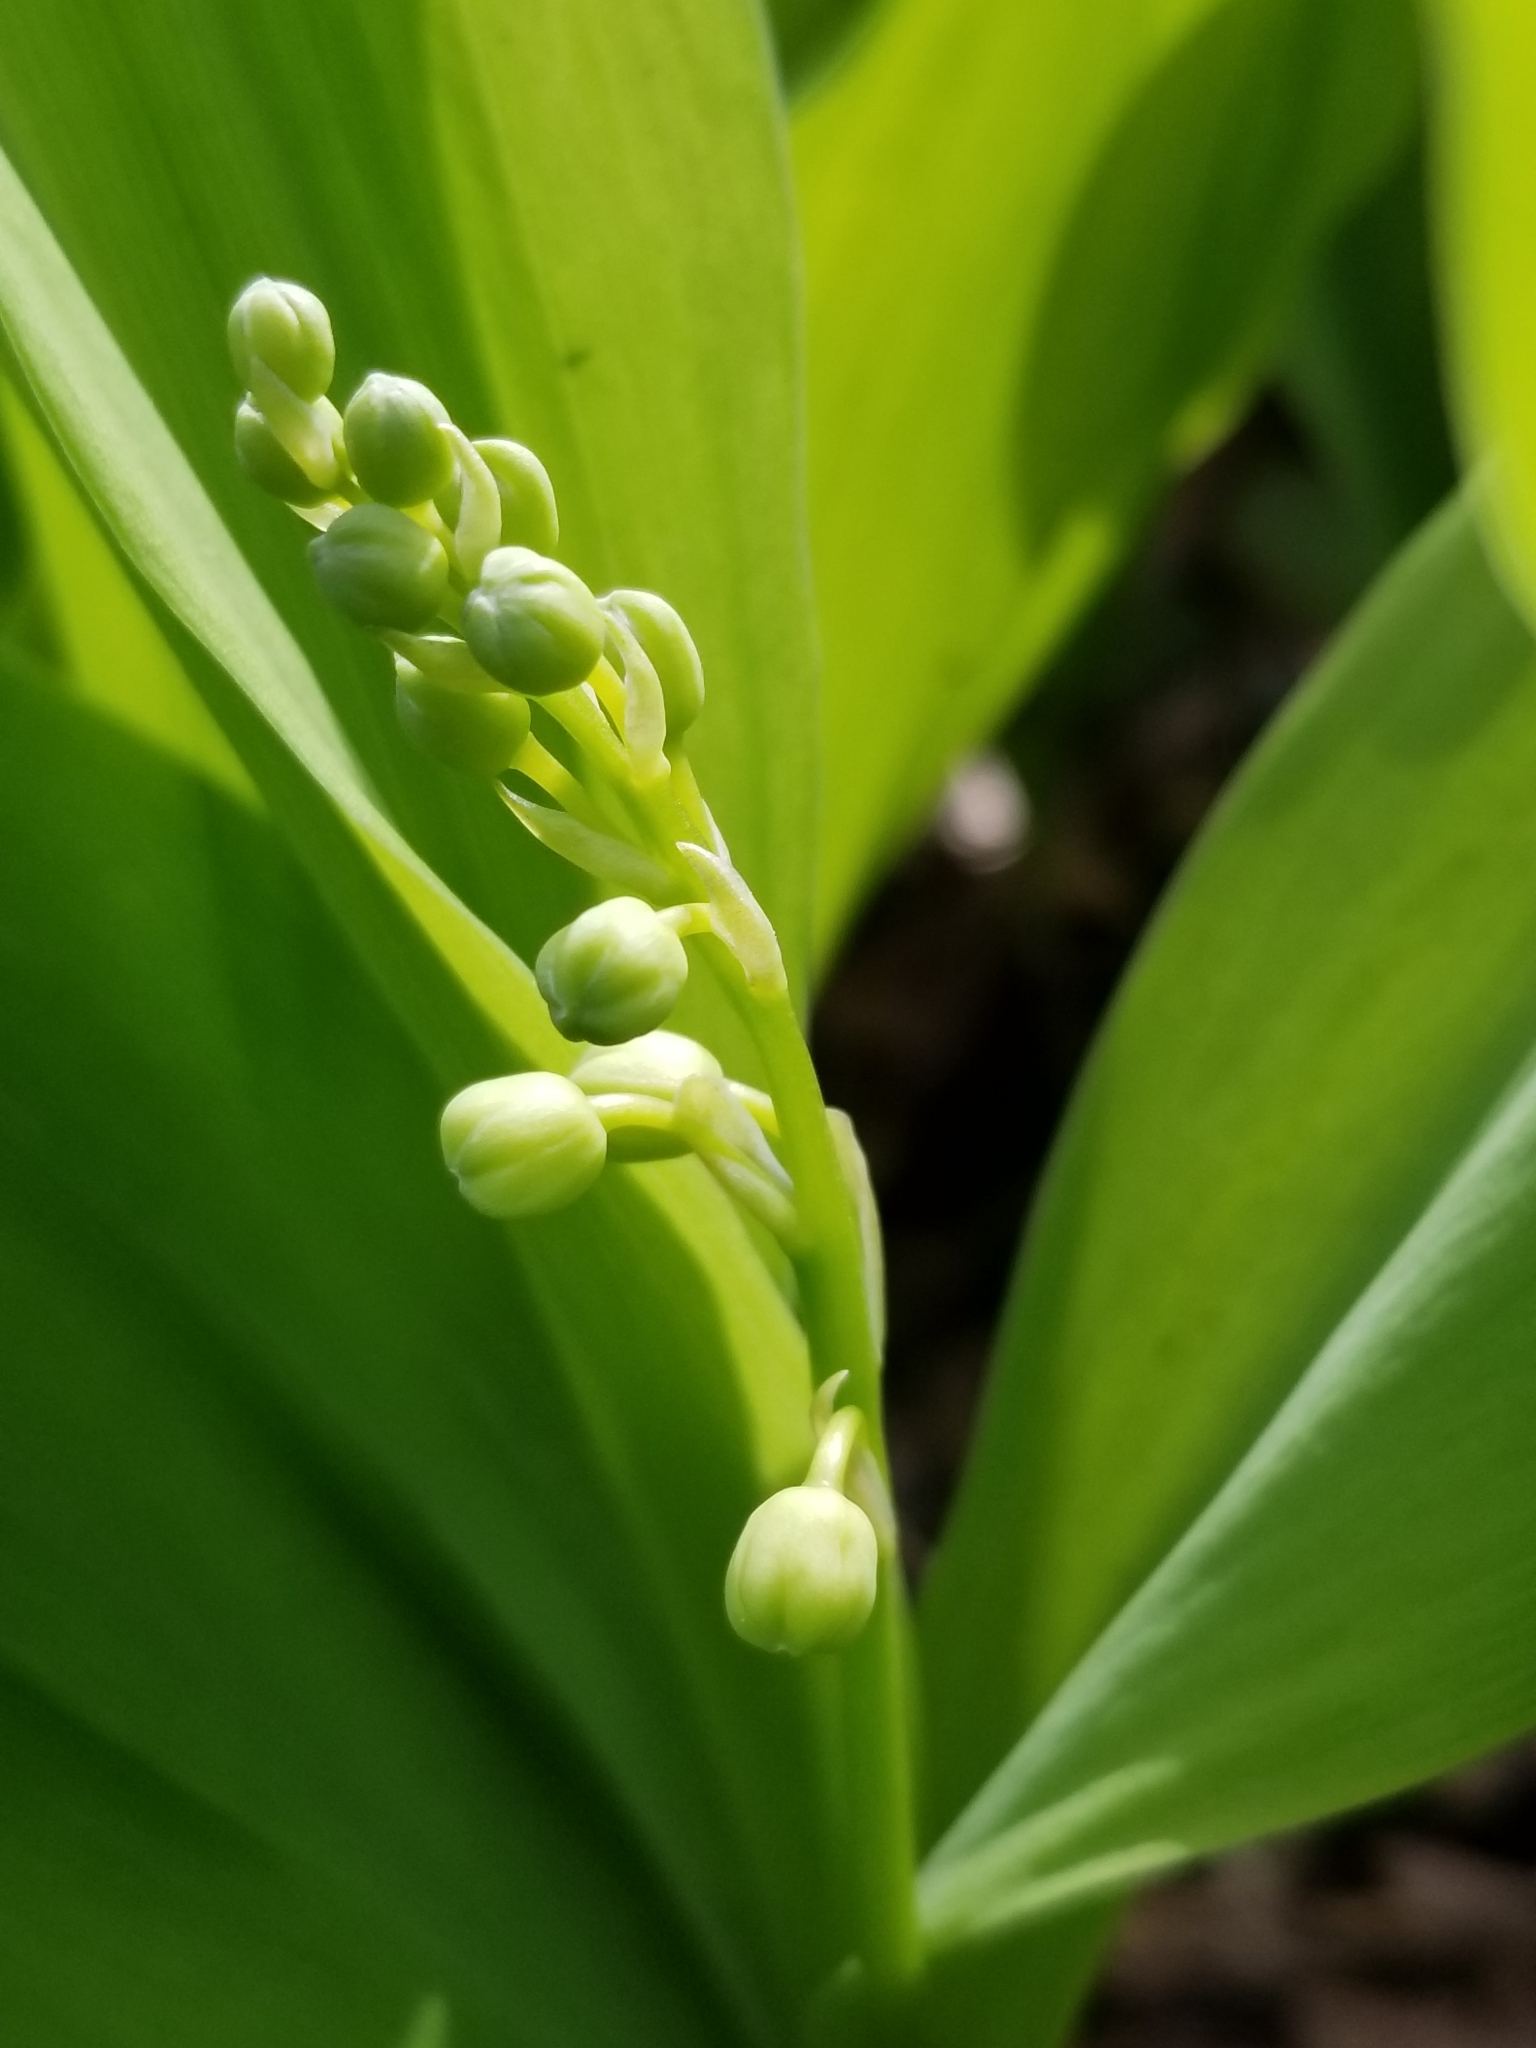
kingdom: Plantae
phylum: Tracheophyta
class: Liliopsida
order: Asparagales
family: Asparagaceae
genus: Convallaria
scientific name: Convallaria majalis
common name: Lily-of-the-valley
